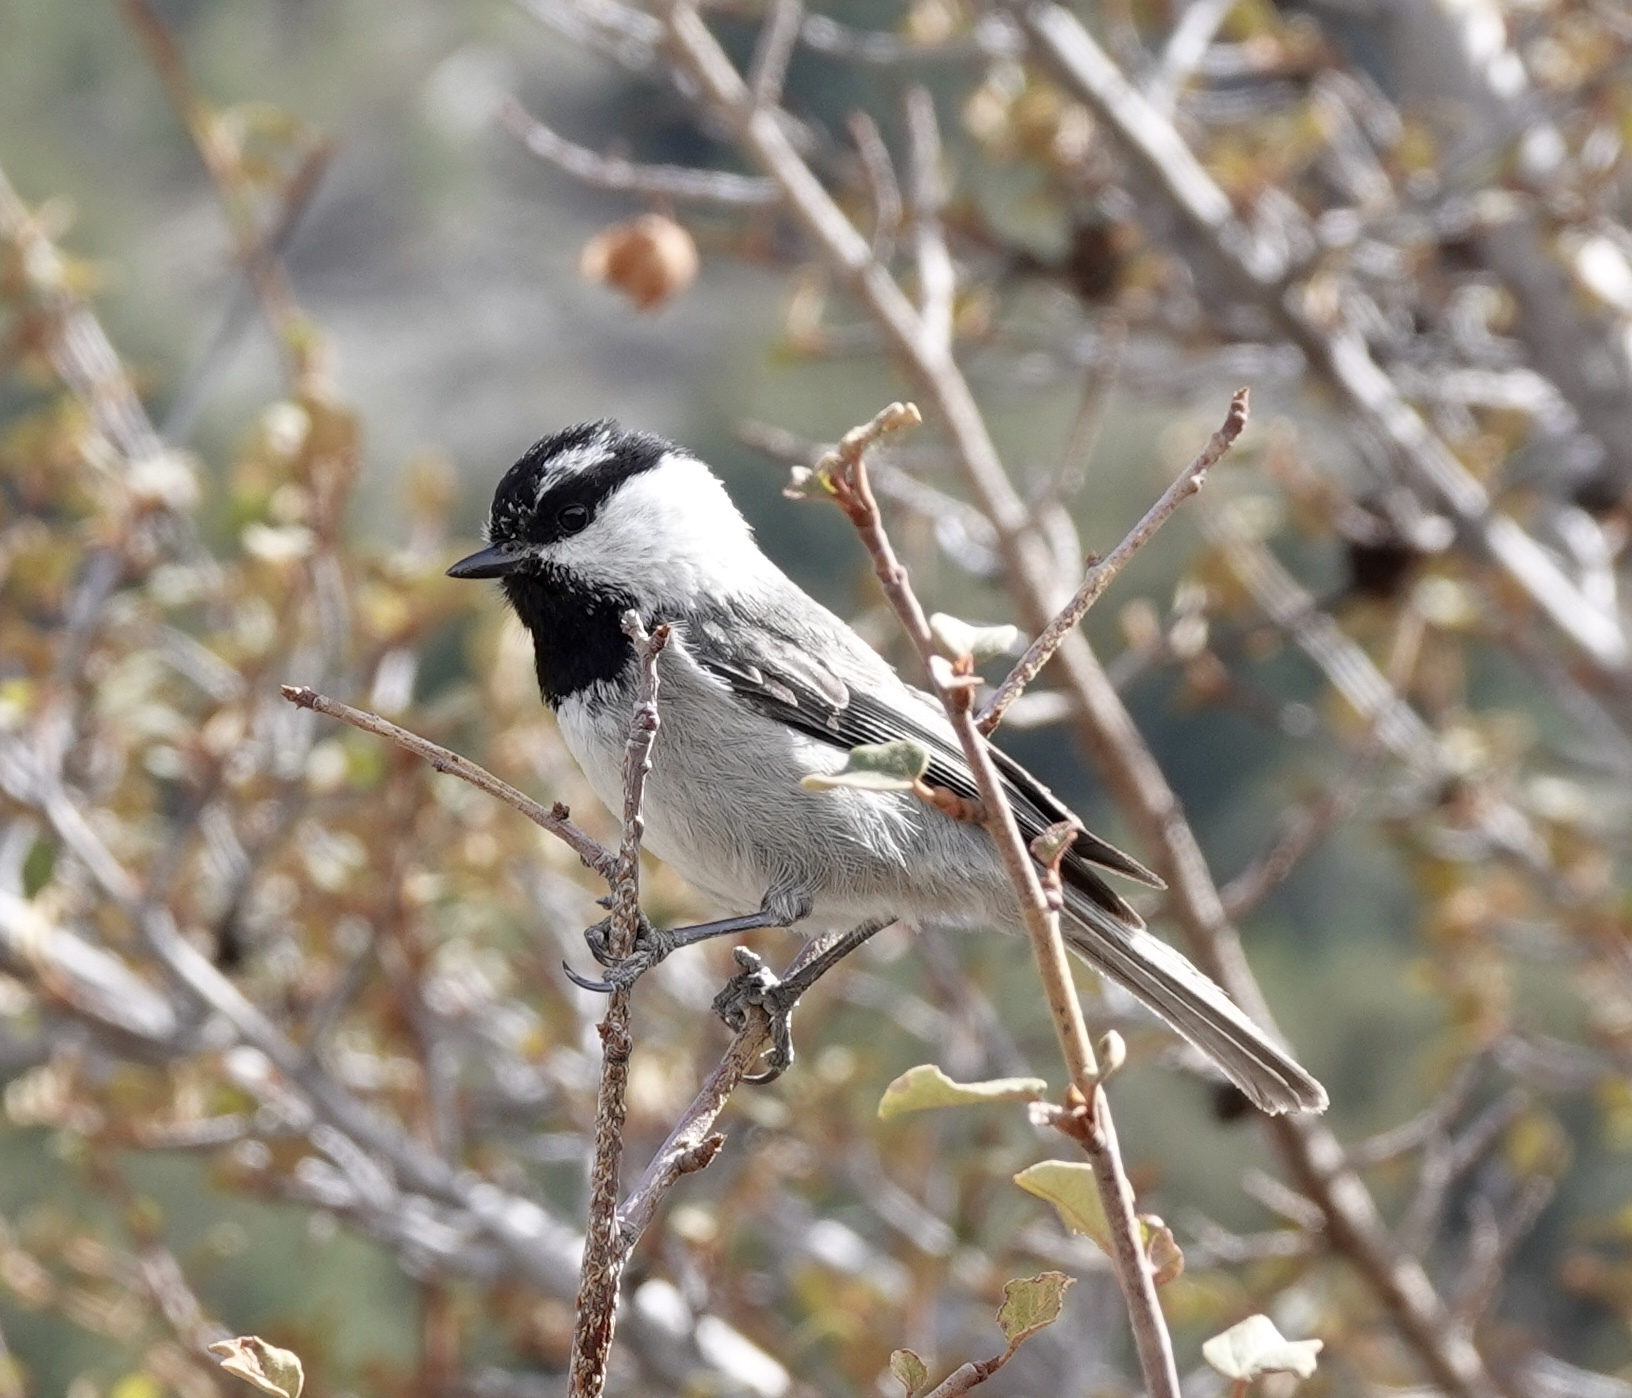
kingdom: Animalia
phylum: Chordata
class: Aves
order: Passeriformes
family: Paridae
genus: Poecile
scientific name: Poecile gambeli
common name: Mountain chickadee
